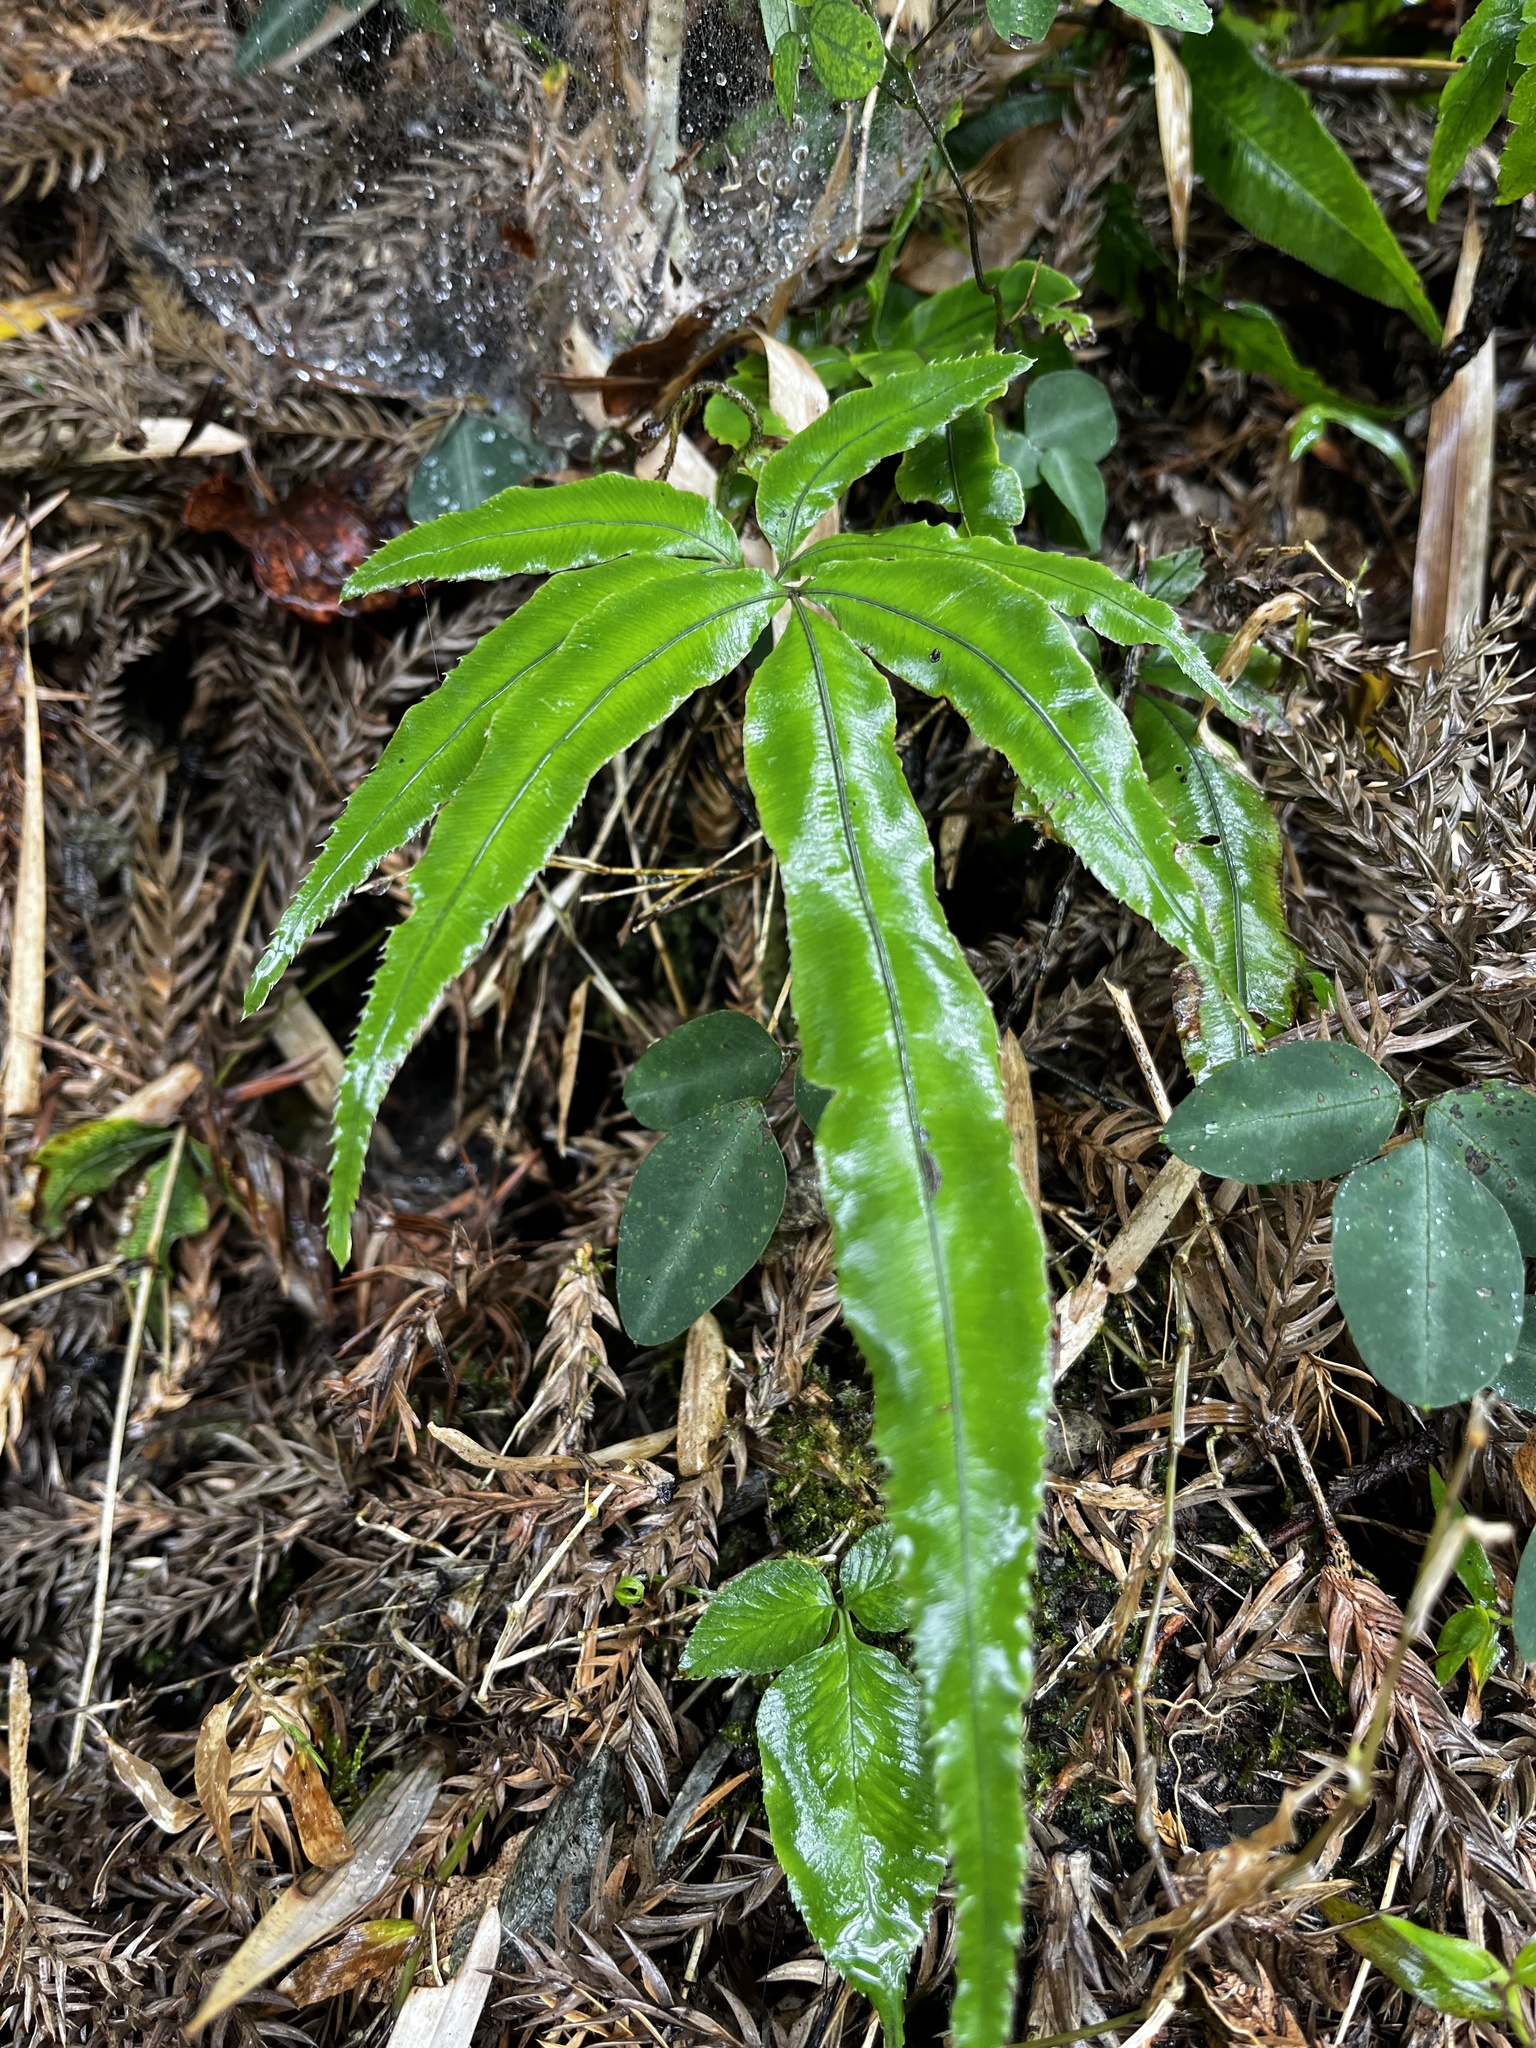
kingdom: Plantae
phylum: Tracheophyta
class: Polypodiopsida
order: Polypodiales
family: Pteridaceae
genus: Pteris
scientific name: Pteris cretica
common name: Ribbon fern
